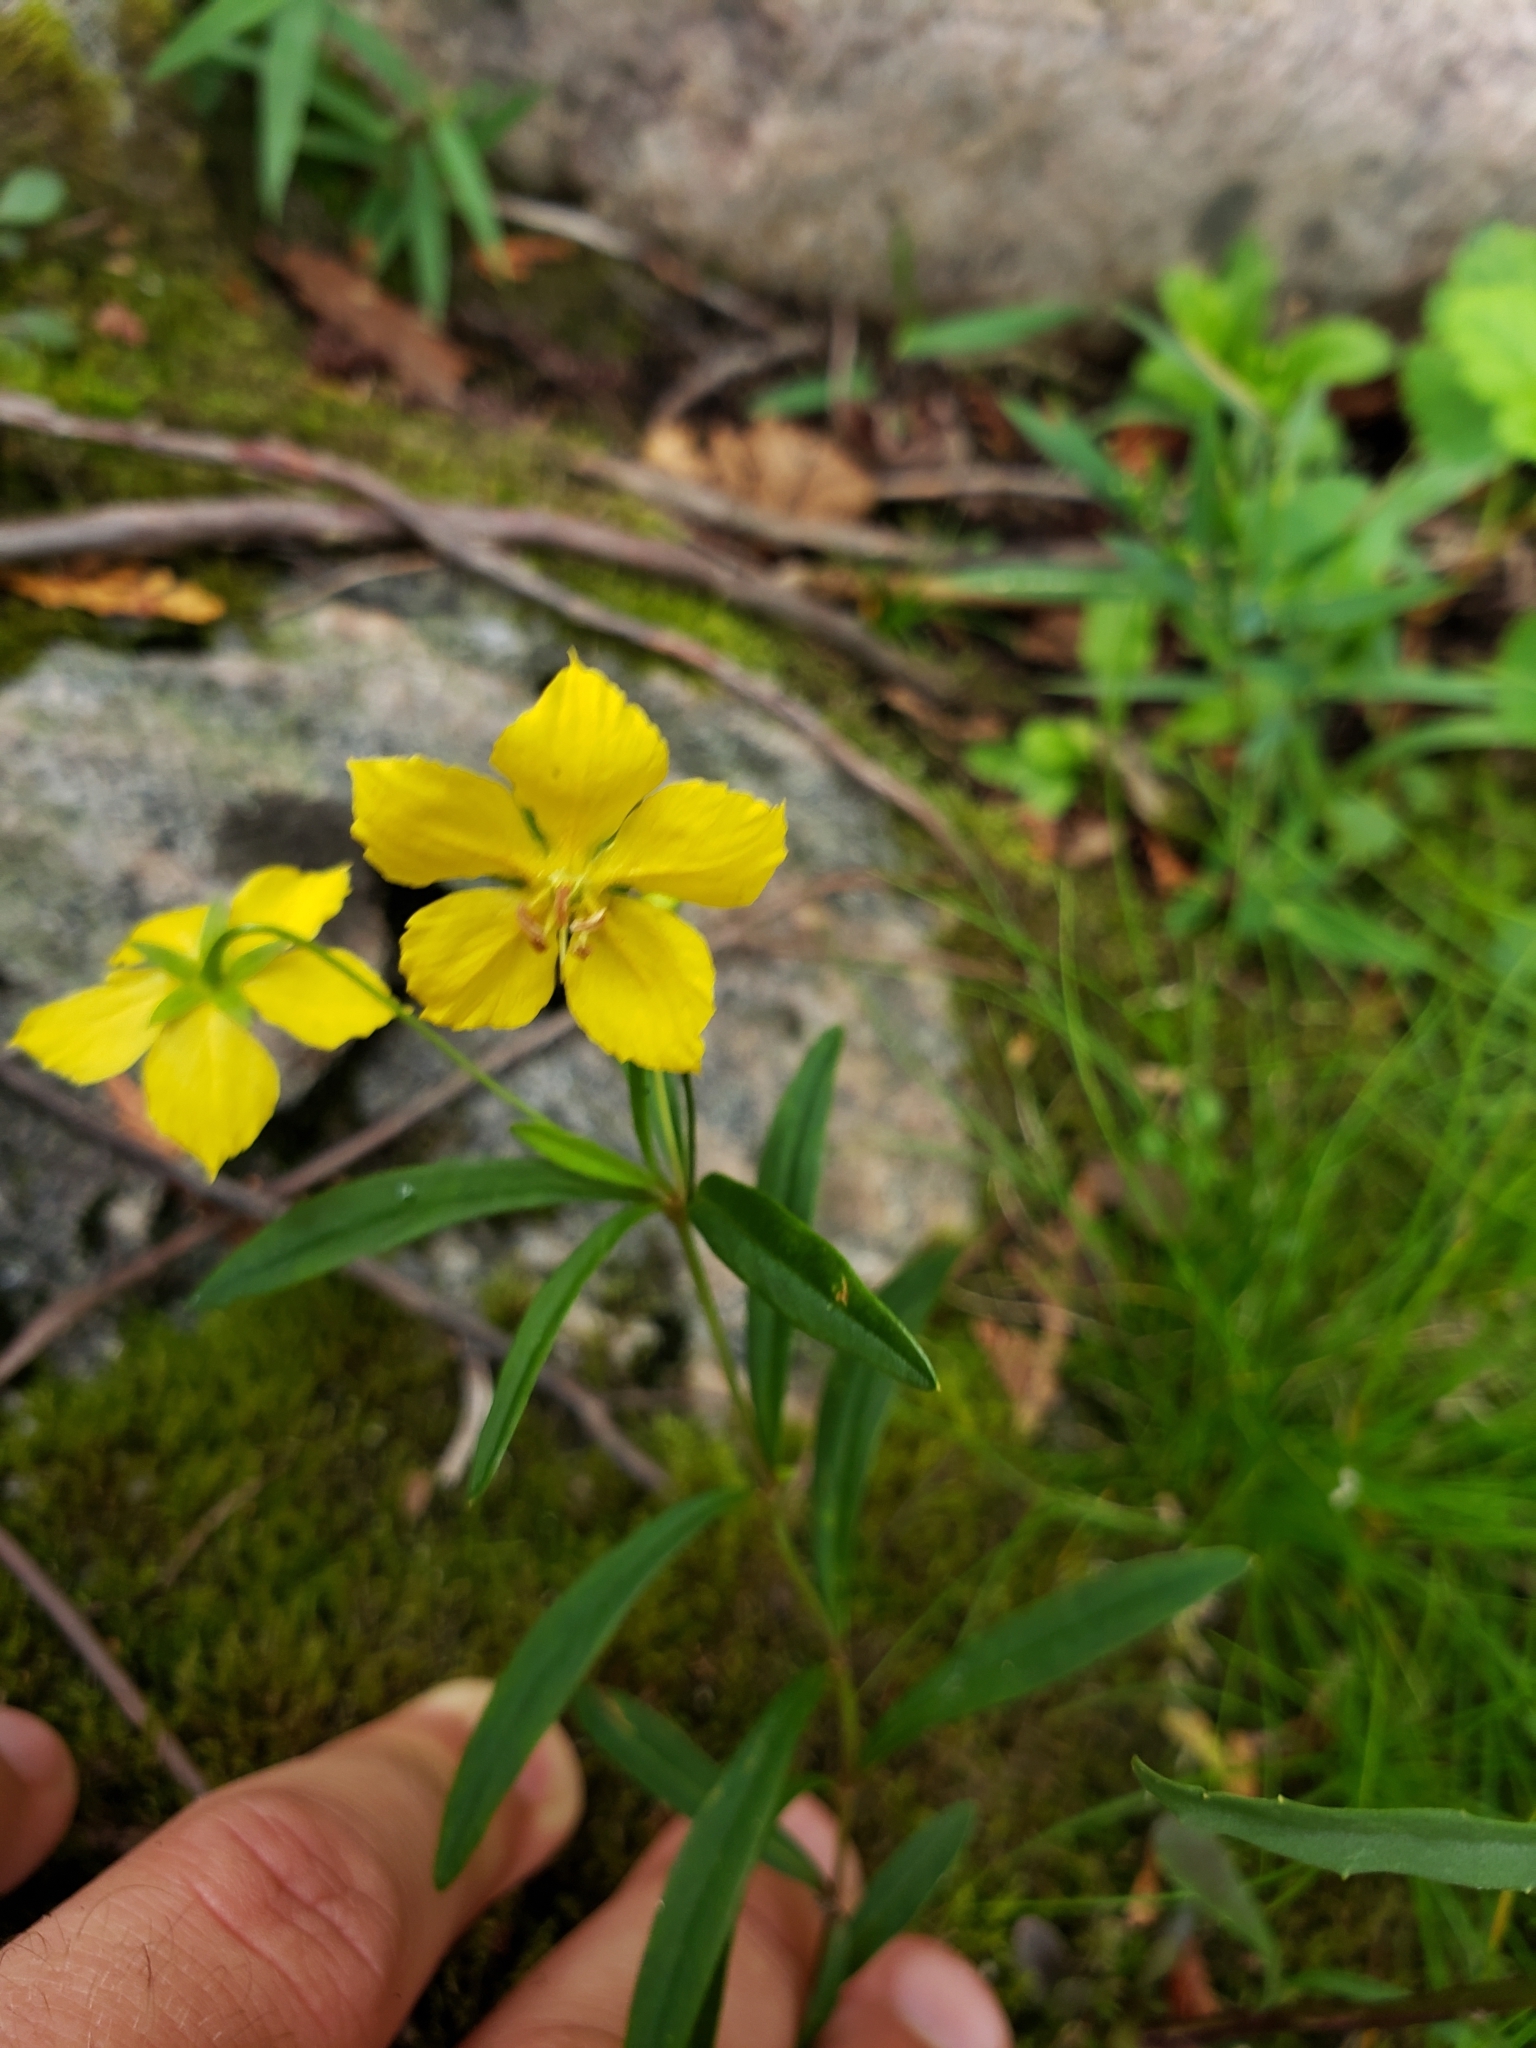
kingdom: Plantae
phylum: Tracheophyta
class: Magnoliopsida
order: Ericales
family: Primulaceae
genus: Lysimachia
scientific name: Lysimachia quadriflora
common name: Four-flowered loosestrife
